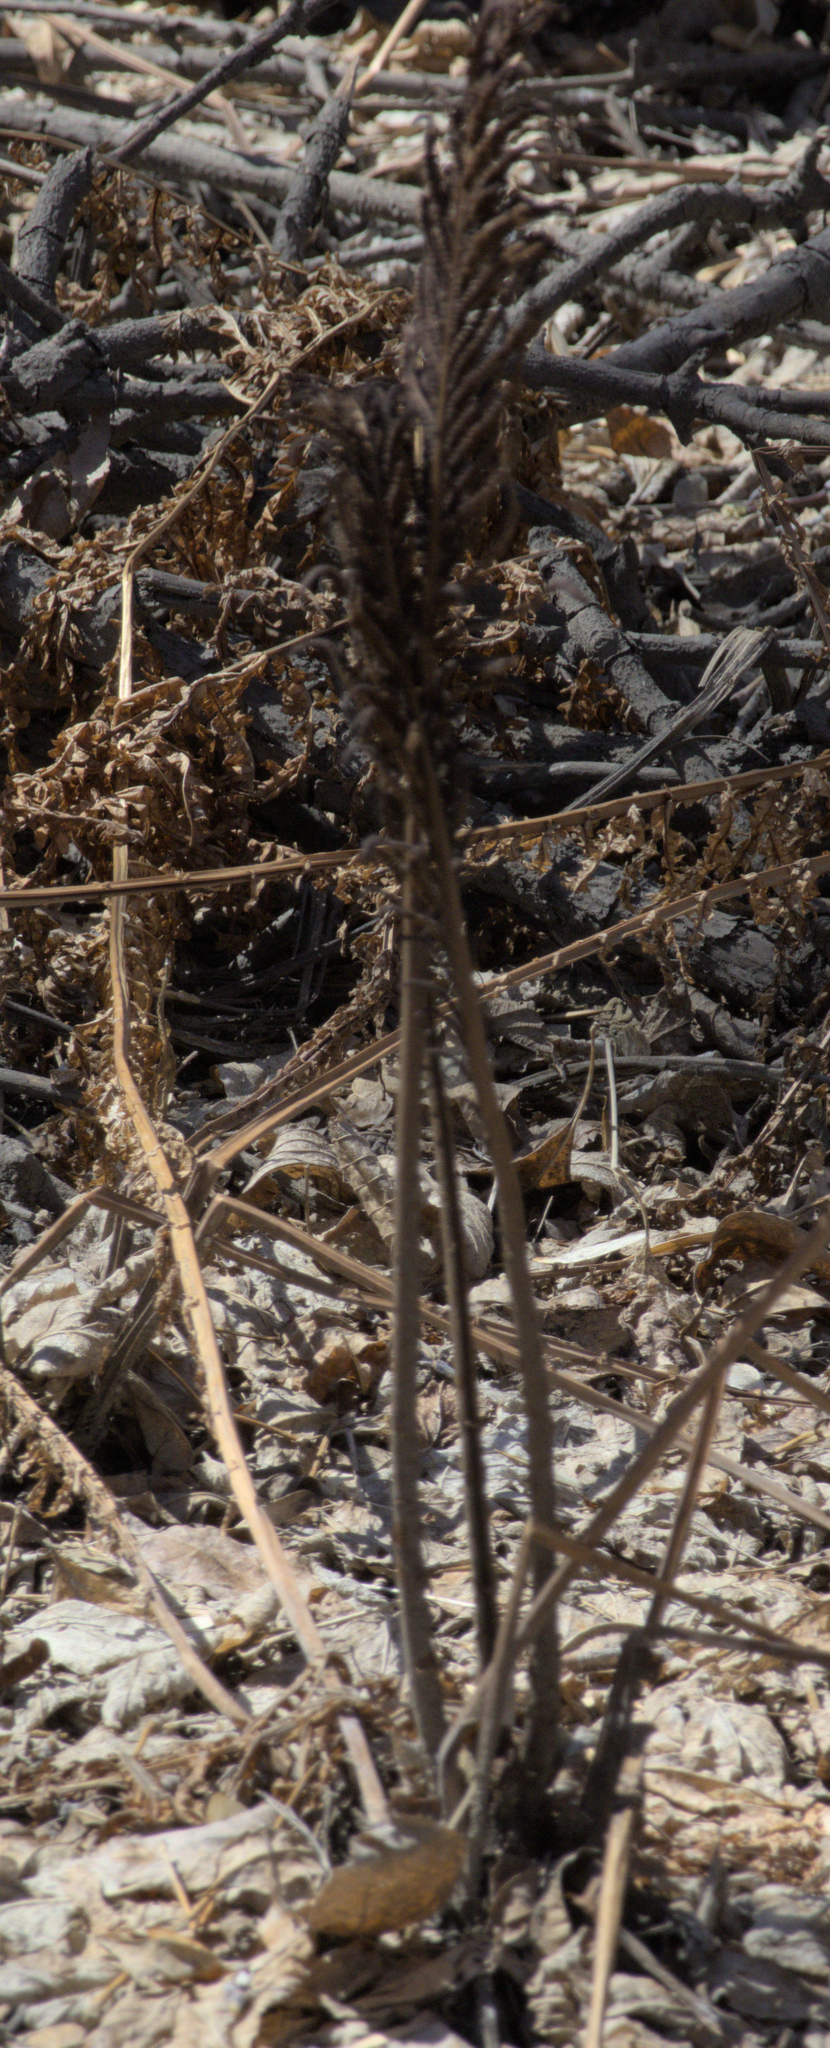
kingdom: Plantae
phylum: Tracheophyta
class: Polypodiopsida
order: Polypodiales
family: Onocleaceae
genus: Matteuccia
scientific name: Matteuccia struthiopteris
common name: Ostrich fern
